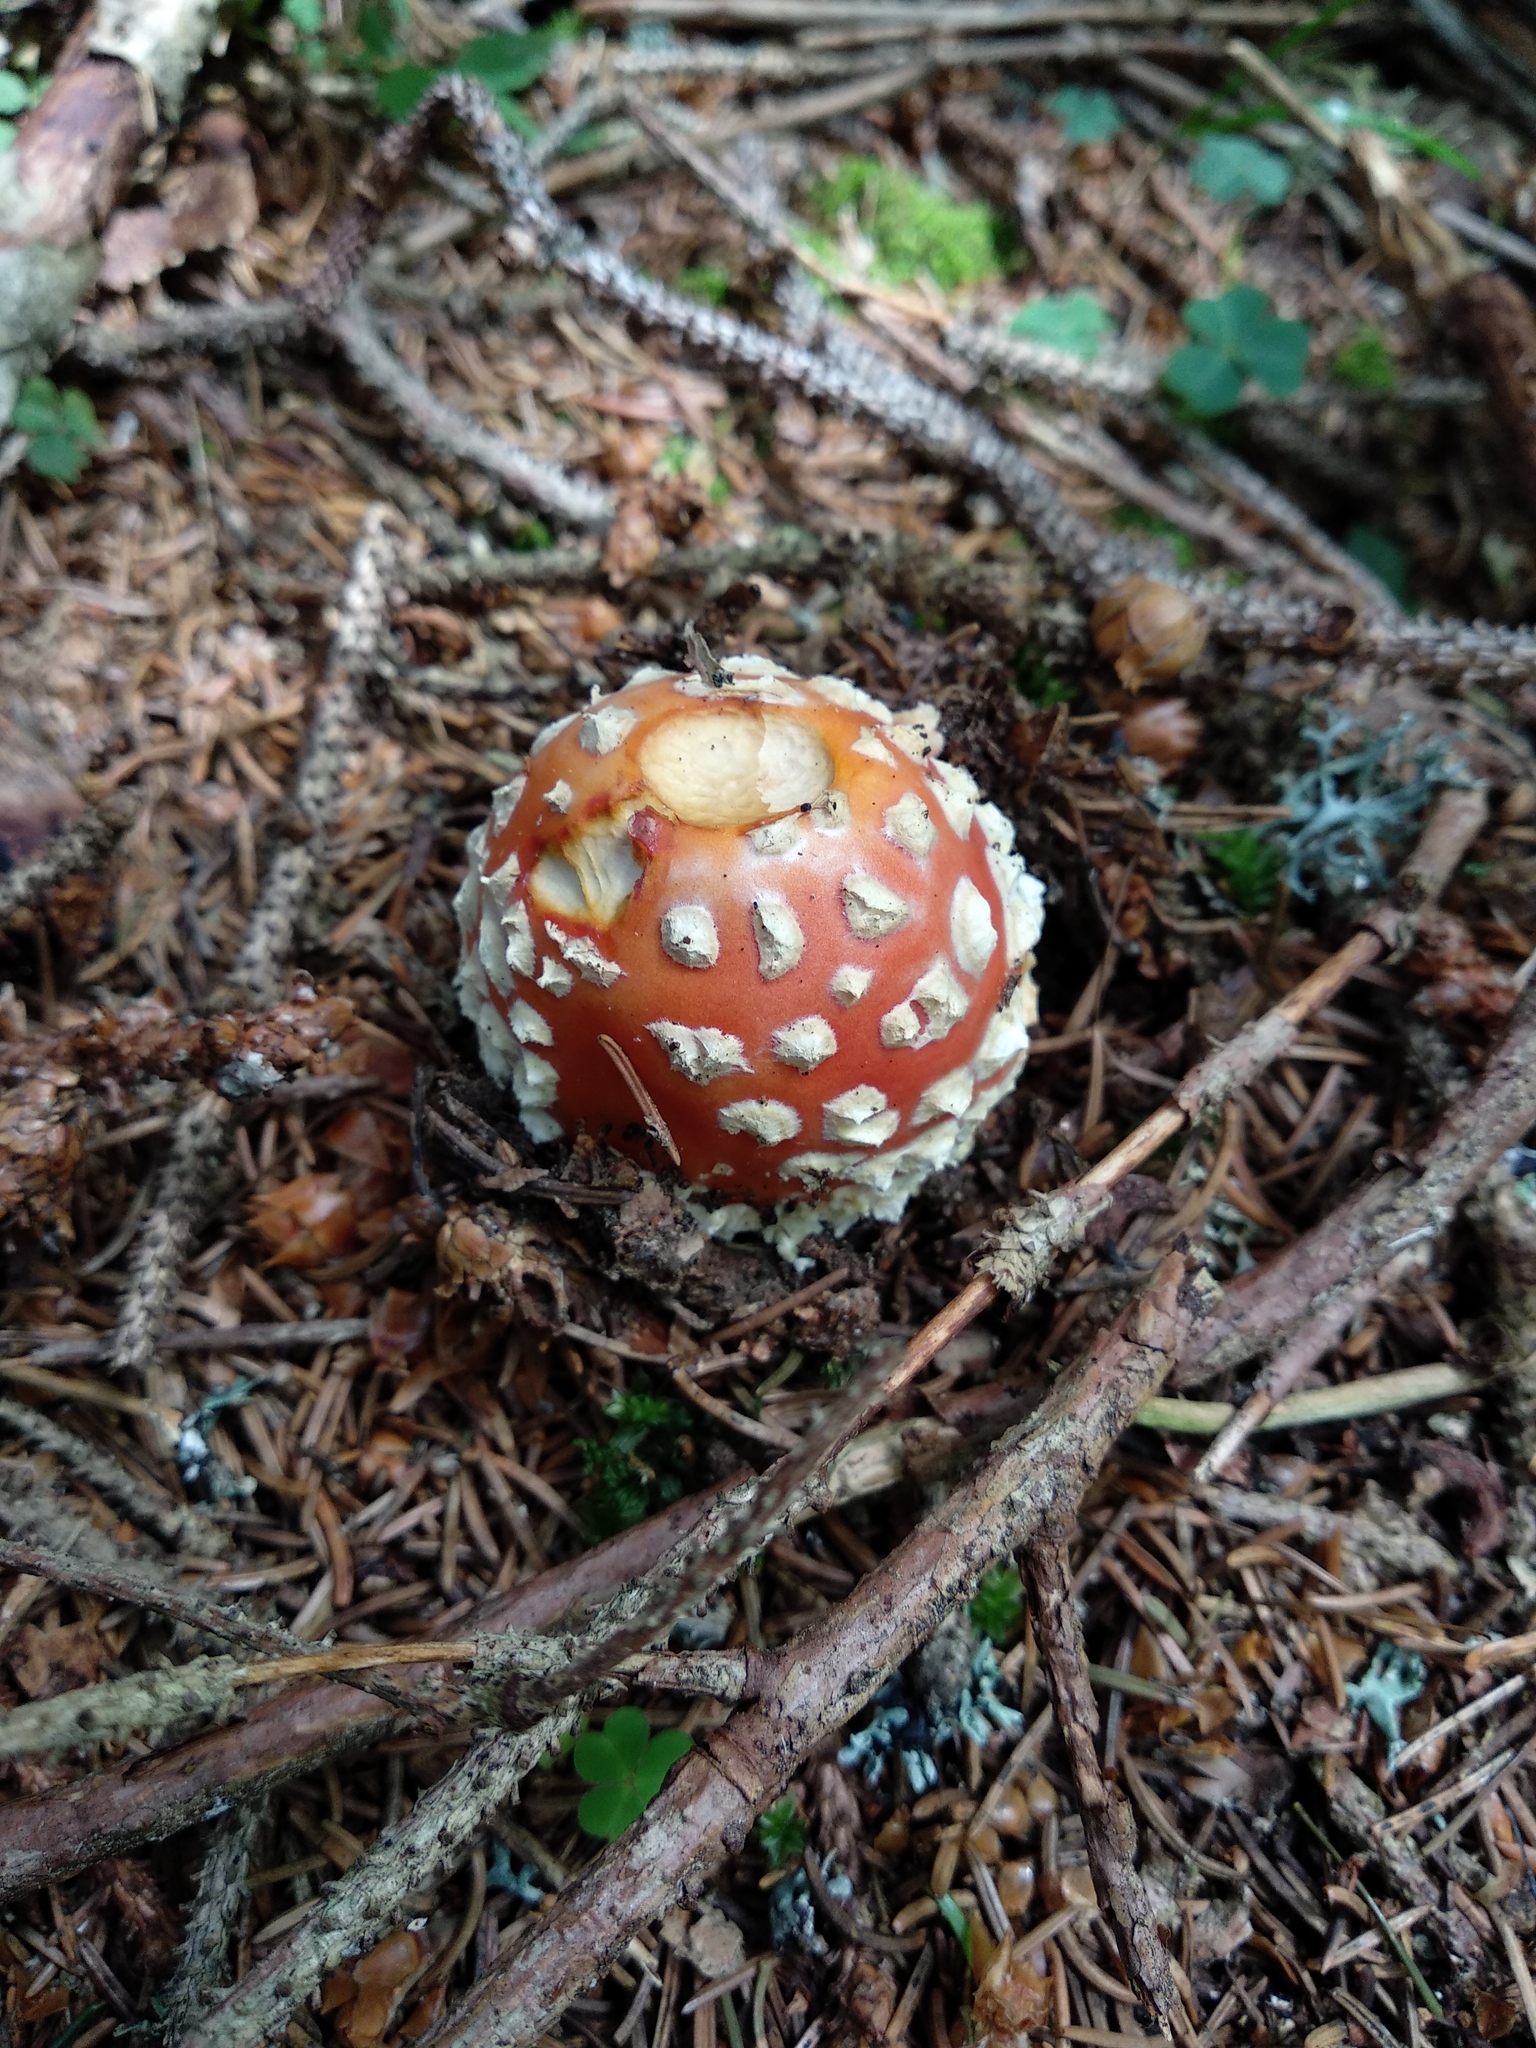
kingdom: Fungi
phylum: Basidiomycota
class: Agaricomycetes
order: Agaricales
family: Amanitaceae
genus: Amanita
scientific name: Amanita muscaria
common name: Fly agaric
